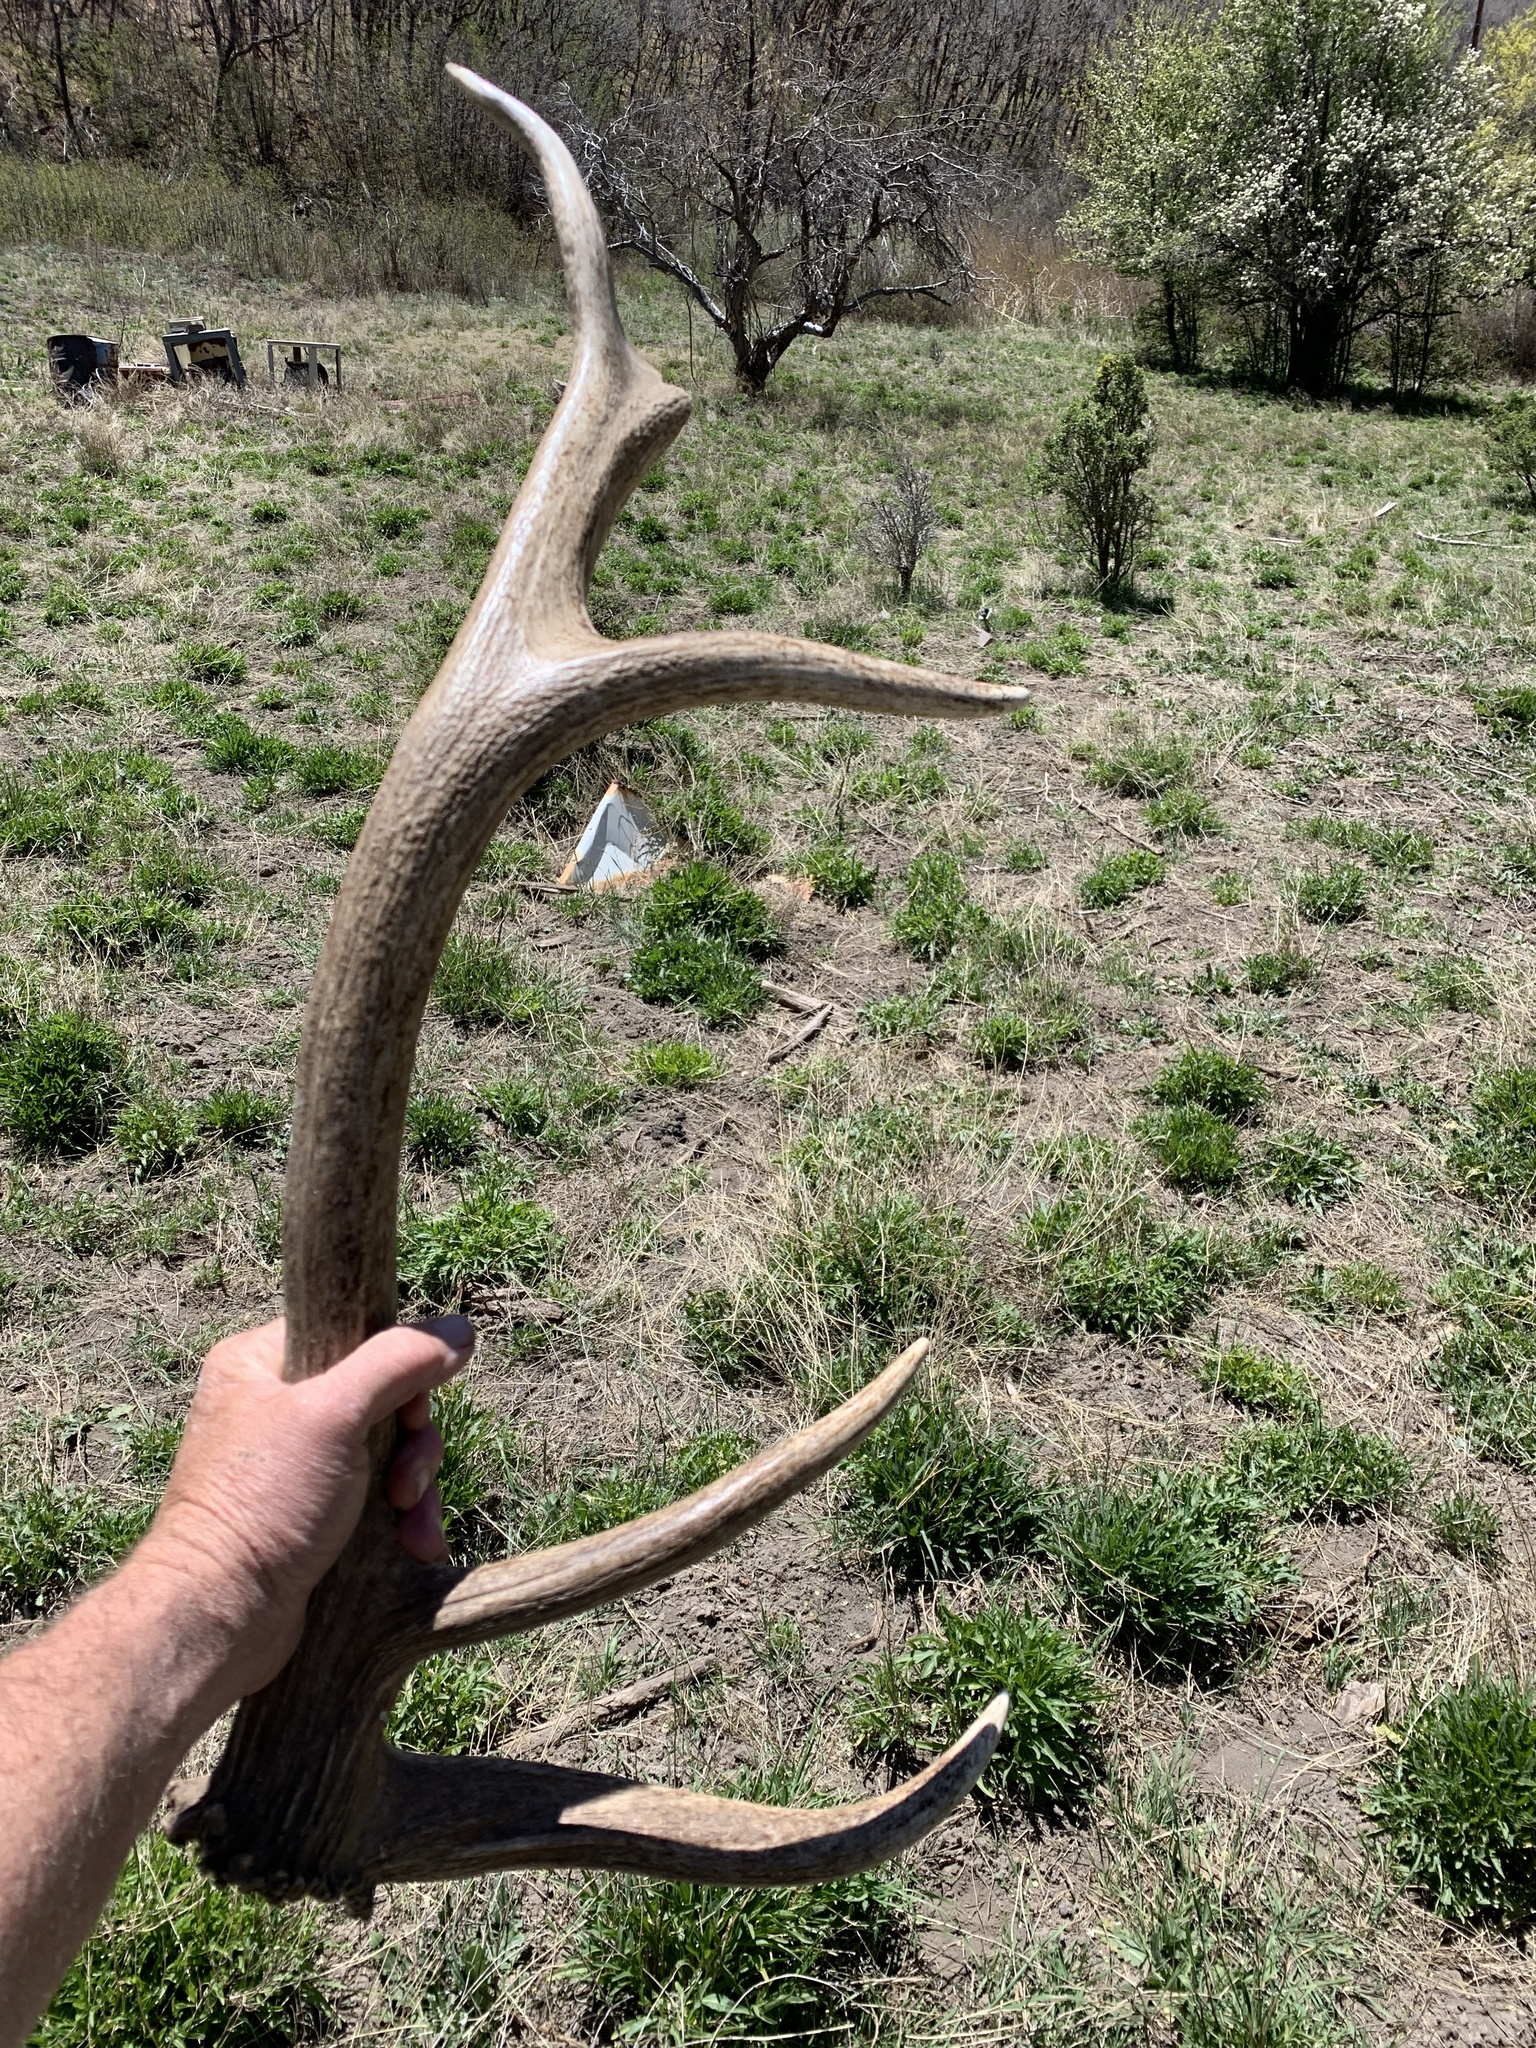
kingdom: Animalia
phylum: Chordata
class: Mammalia
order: Artiodactyla
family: Cervidae
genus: Cervus
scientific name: Cervus elaphus
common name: Red deer
